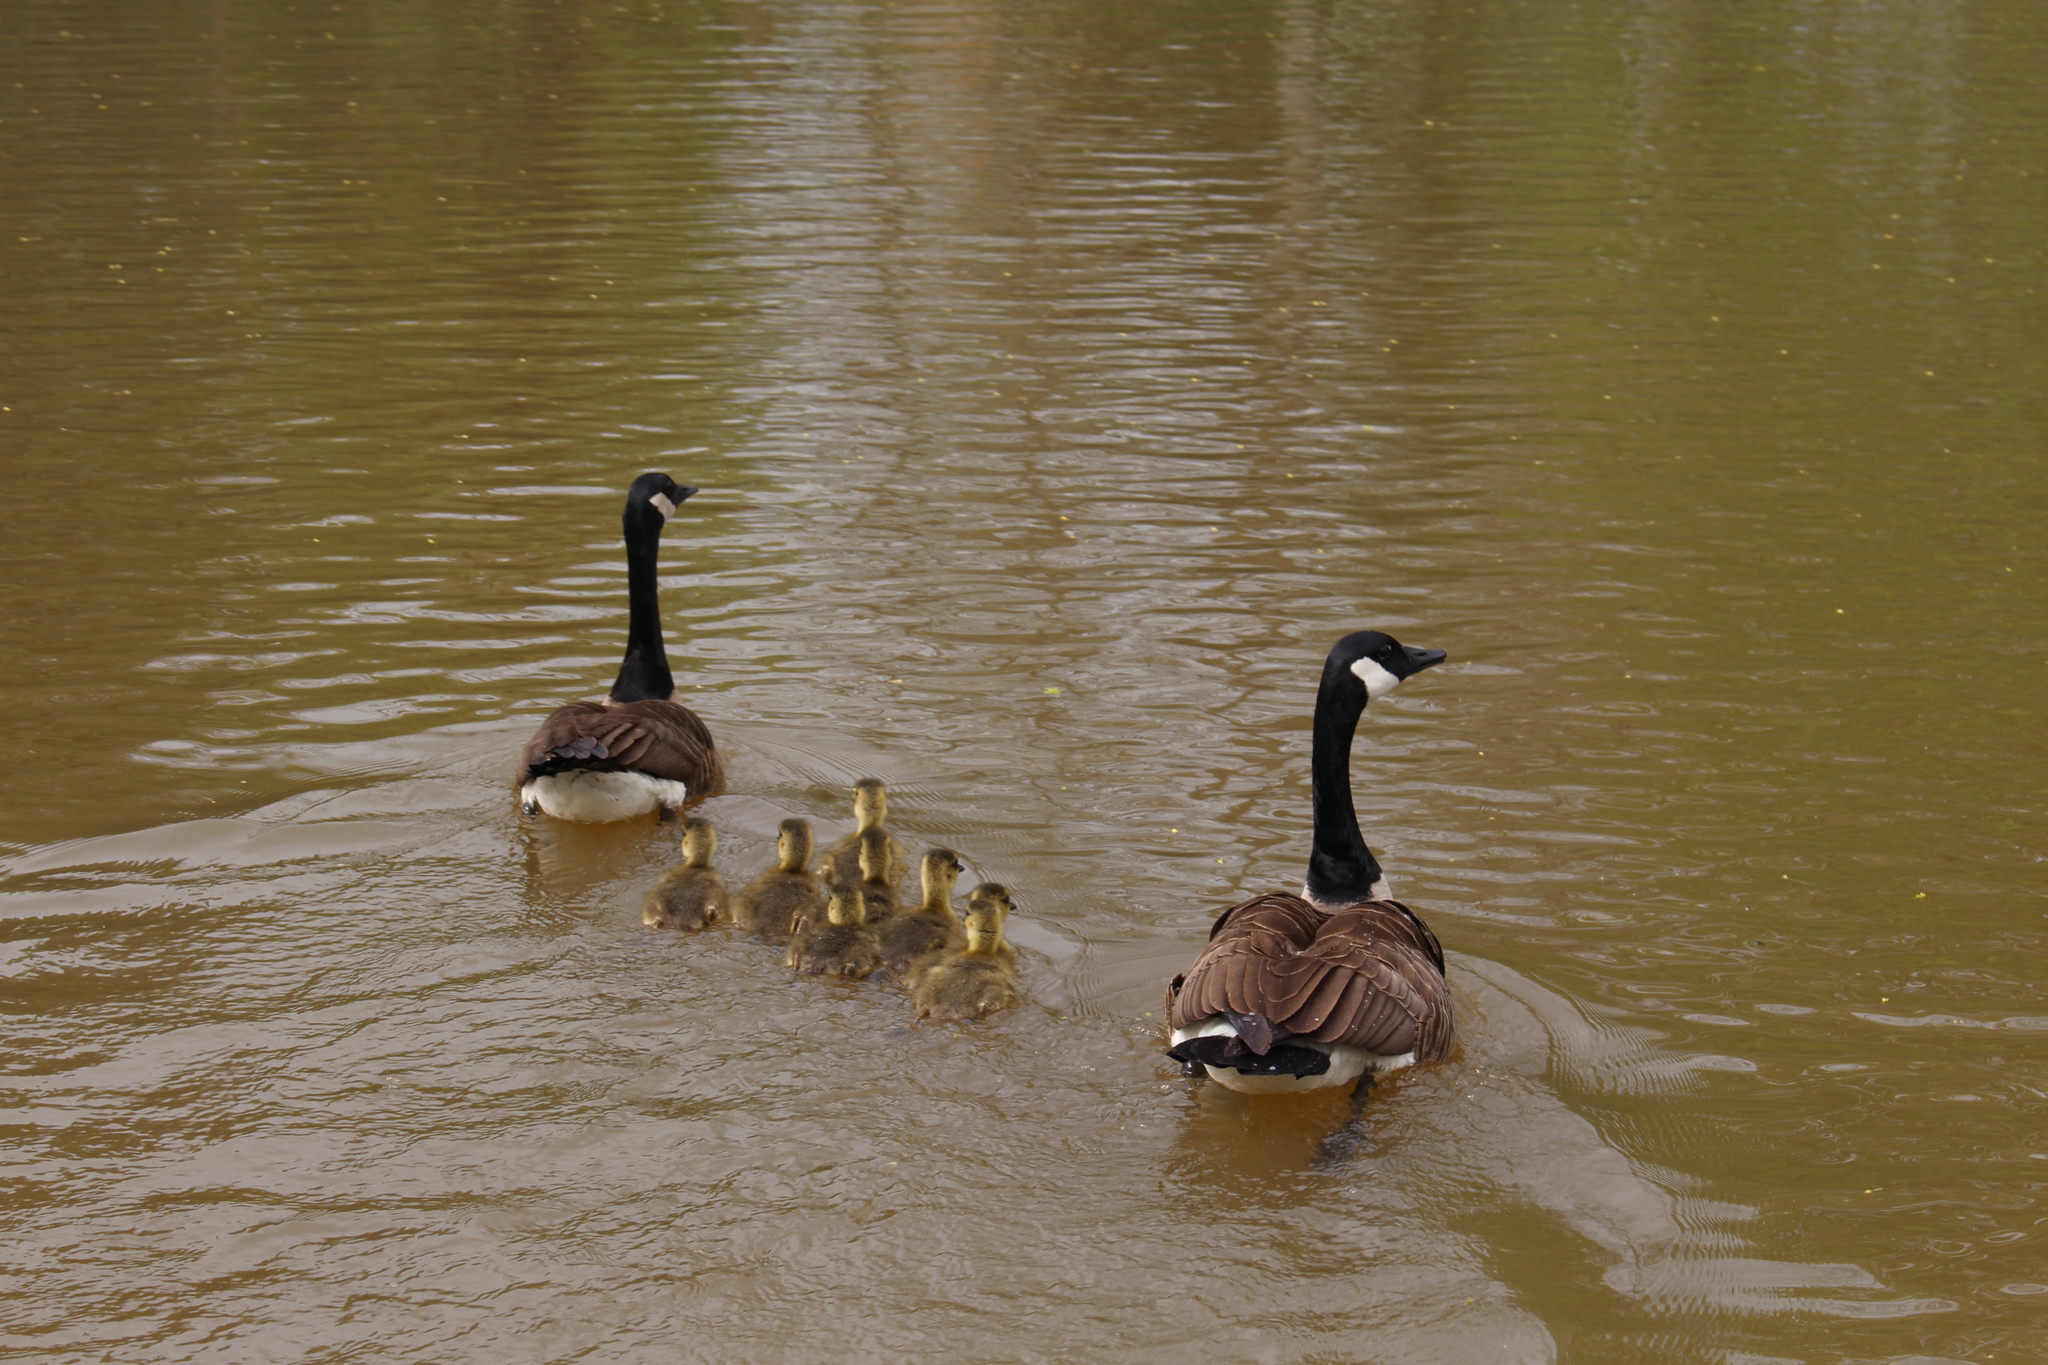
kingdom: Animalia
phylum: Chordata
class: Aves
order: Anseriformes
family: Anatidae
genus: Branta
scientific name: Branta canadensis
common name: Canada goose
